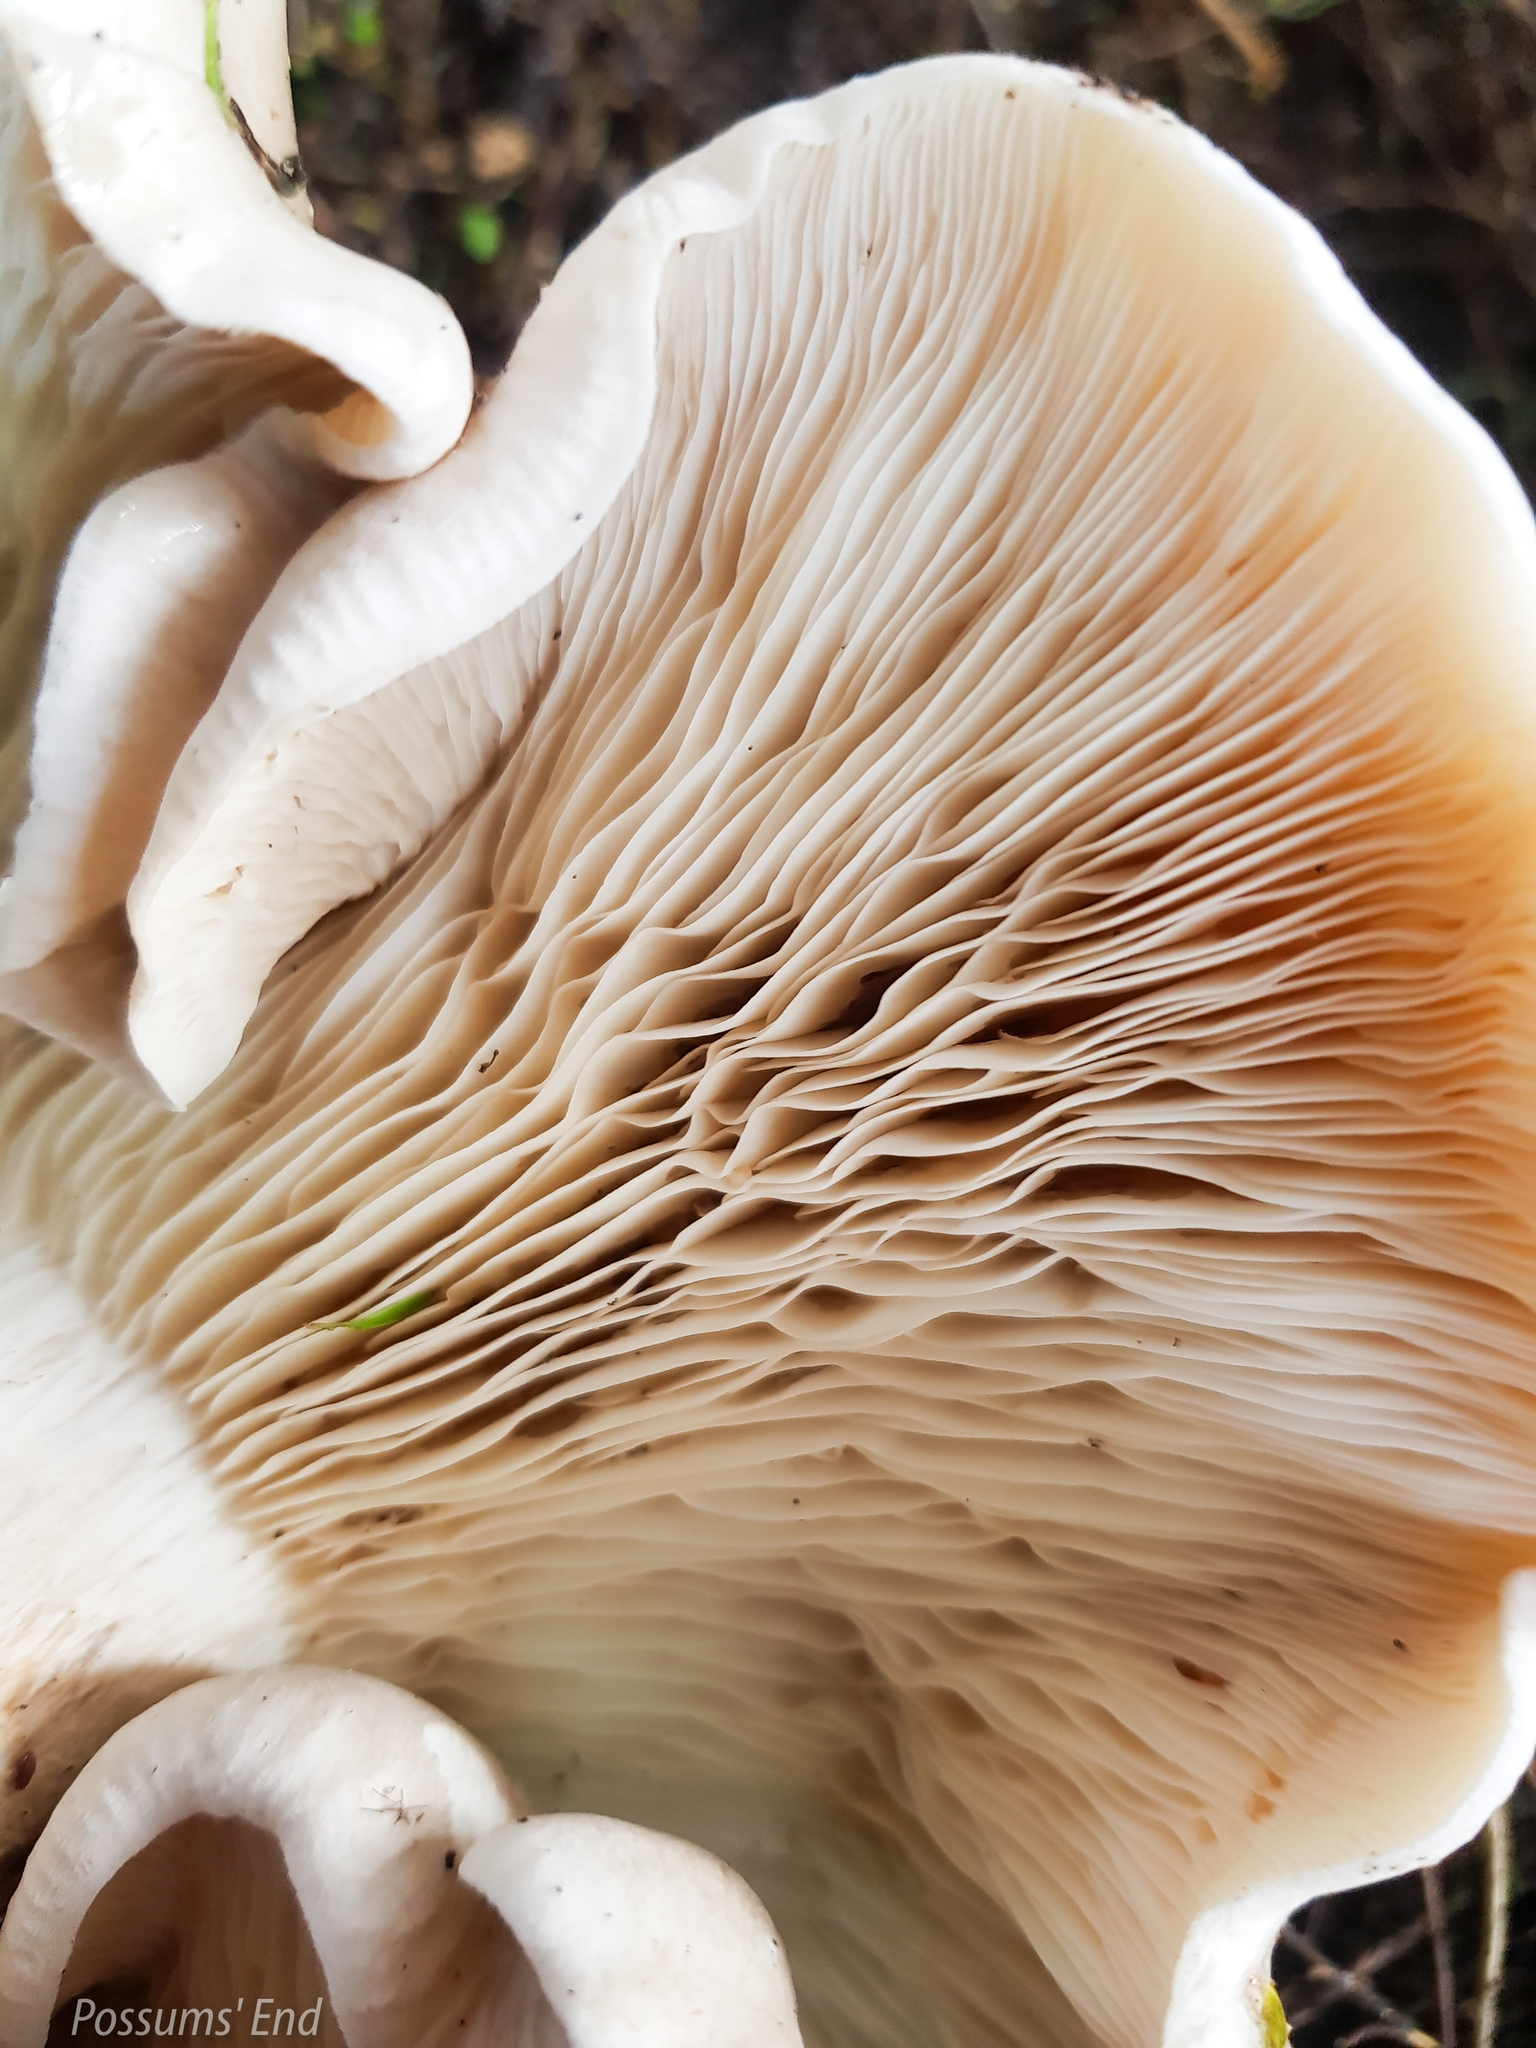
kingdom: Fungi
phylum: Basidiomycota
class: Agaricomycetes
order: Agaricales
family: Tricholomataceae
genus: Clitocybe
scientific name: Clitocybe nebularis
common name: Clouded agaric
